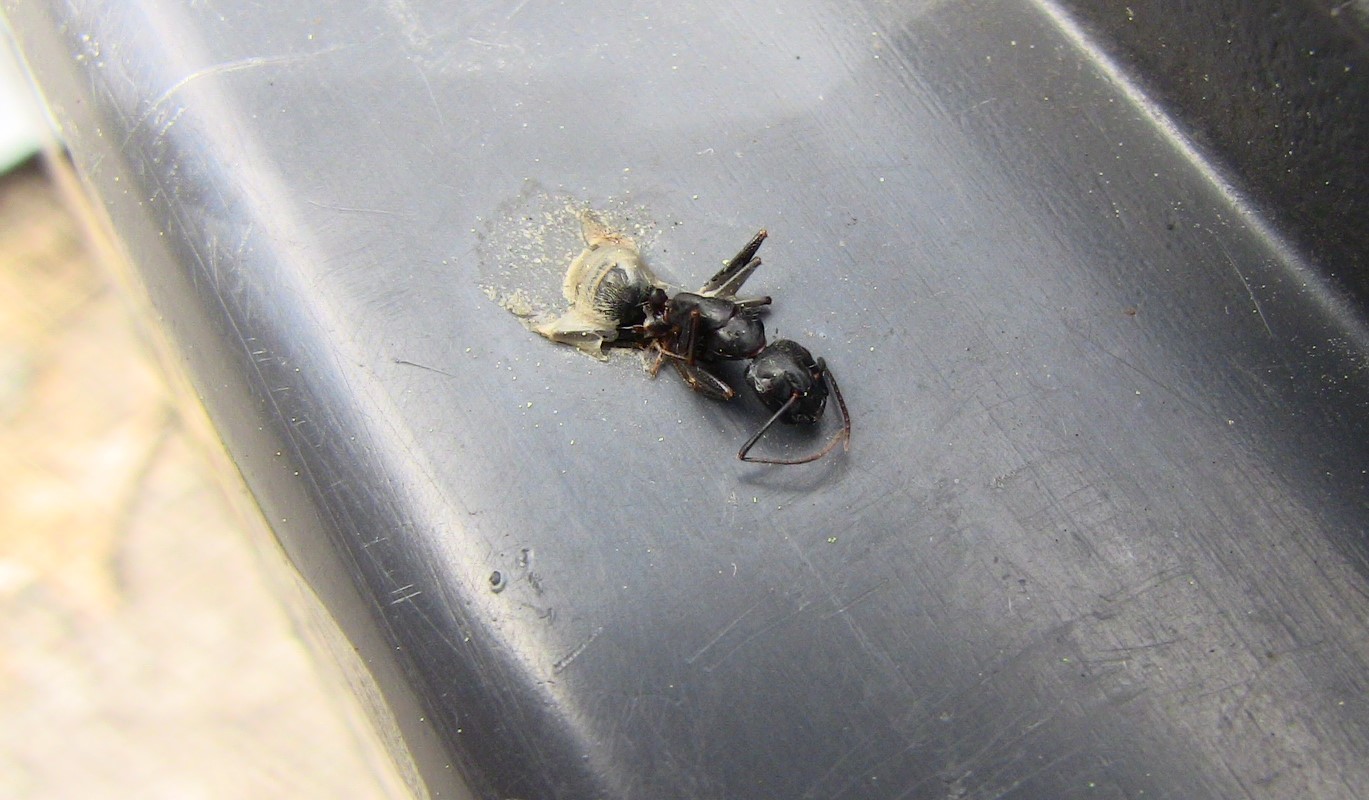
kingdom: Animalia
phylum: Arthropoda
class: Insecta
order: Hymenoptera
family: Formicidae
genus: Camponotus
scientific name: Camponotus pennsylvanicus
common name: Black carpenter ant
